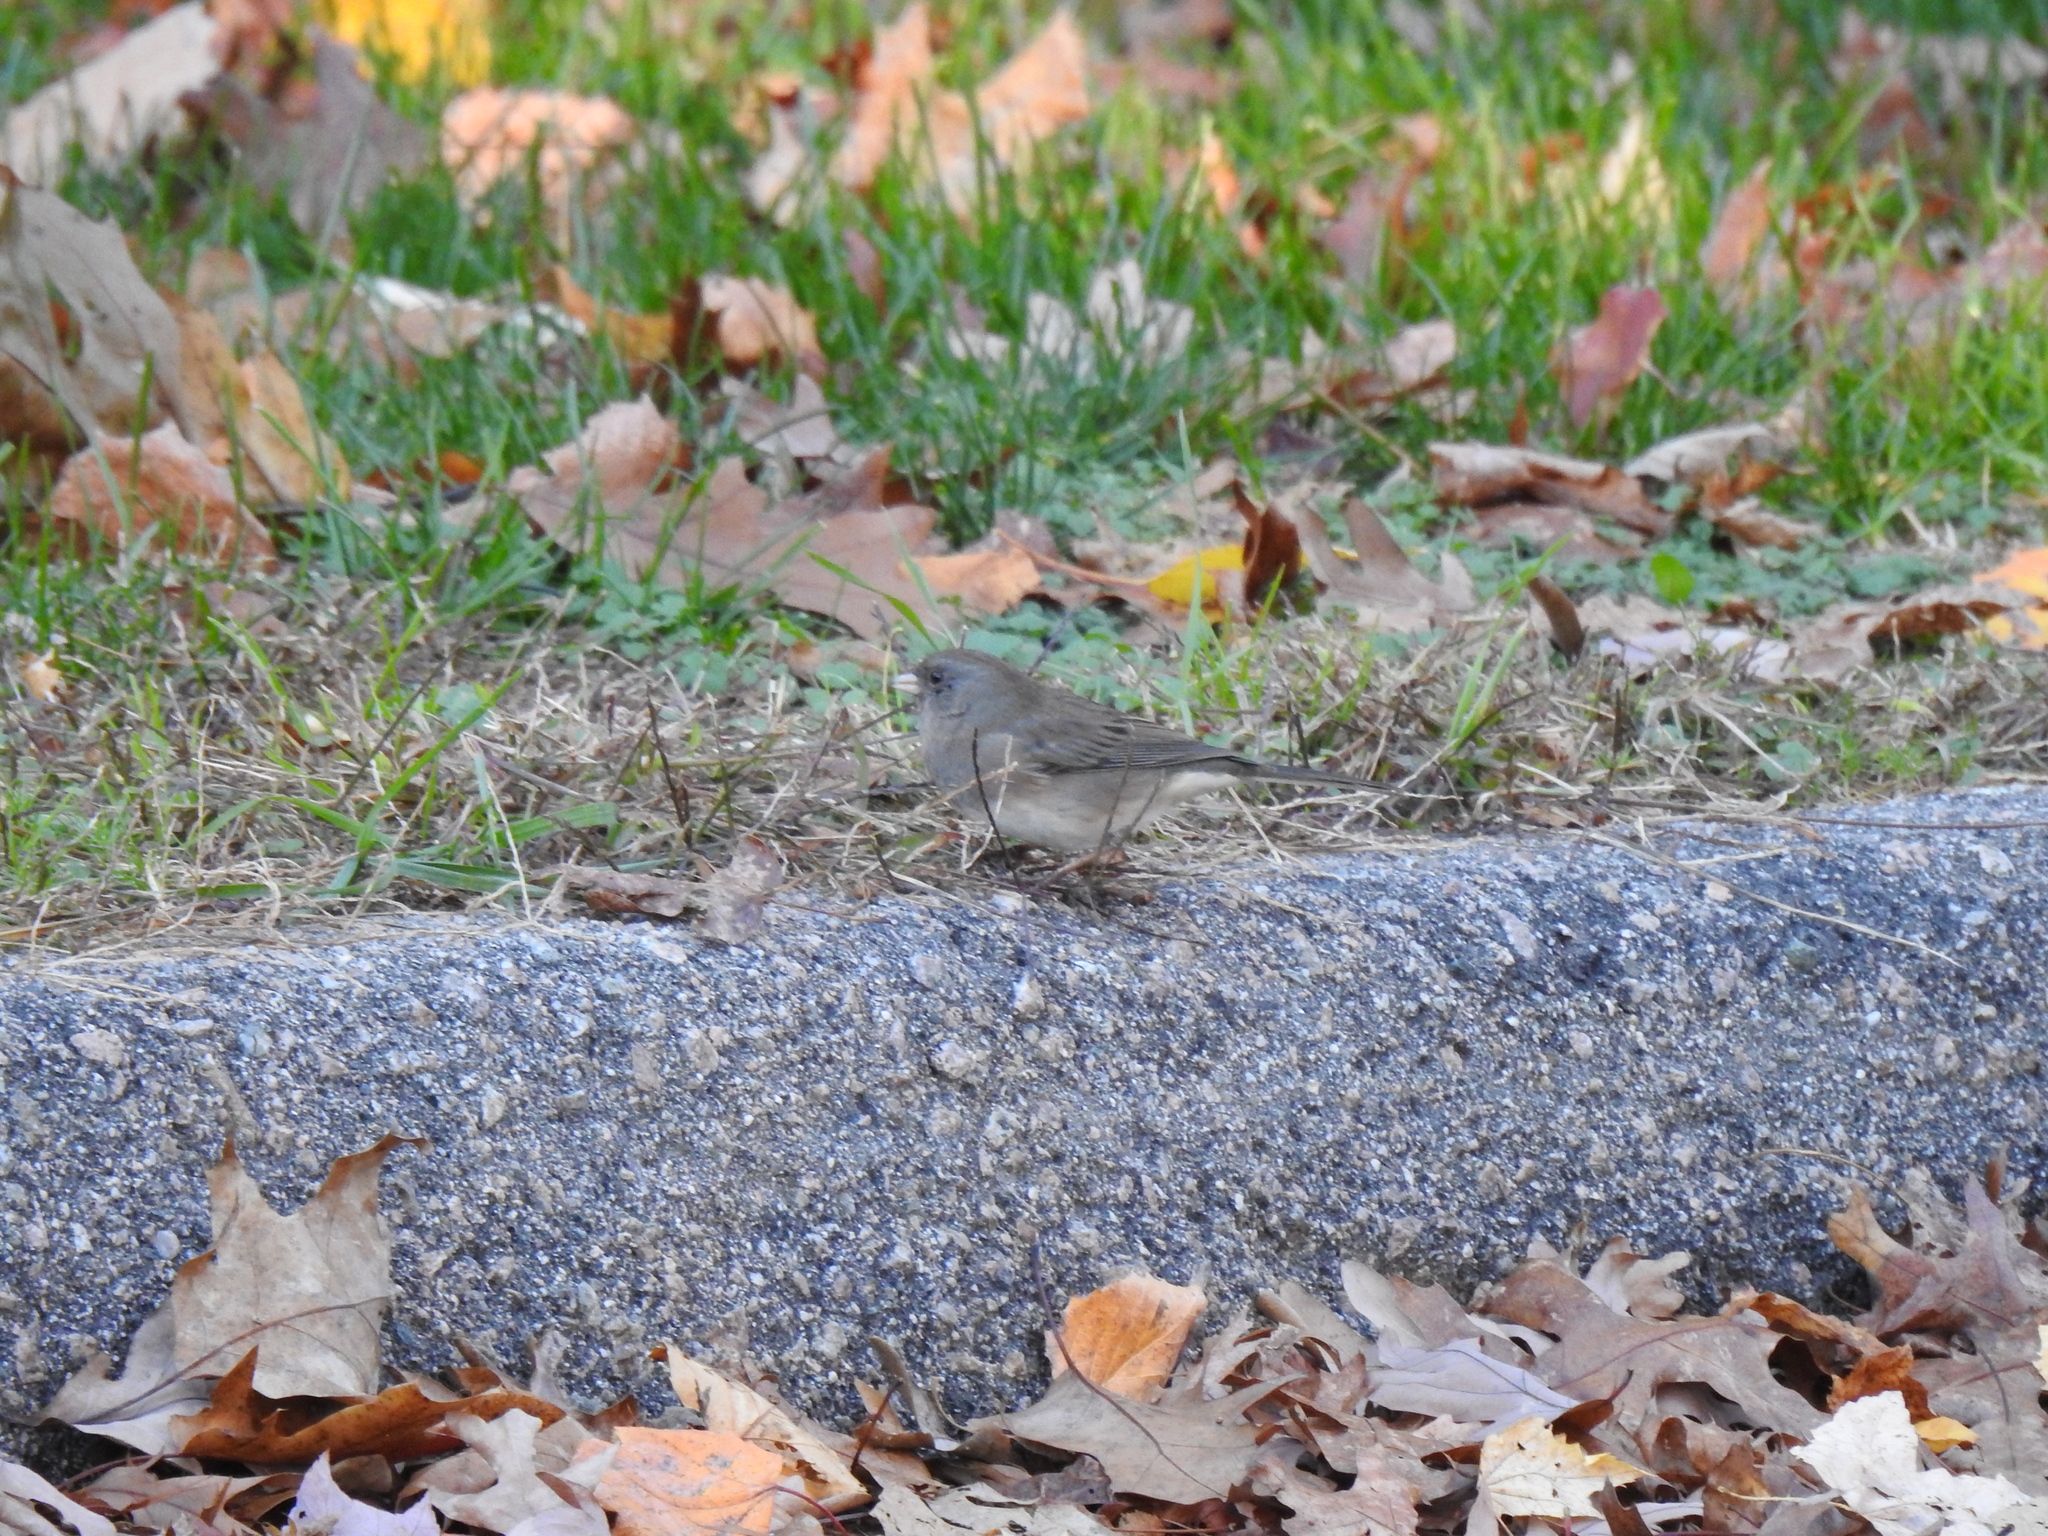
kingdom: Animalia
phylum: Chordata
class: Aves
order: Passeriformes
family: Passerellidae
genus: Junco
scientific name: Junco hyemalis
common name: Dark-eyed junco
